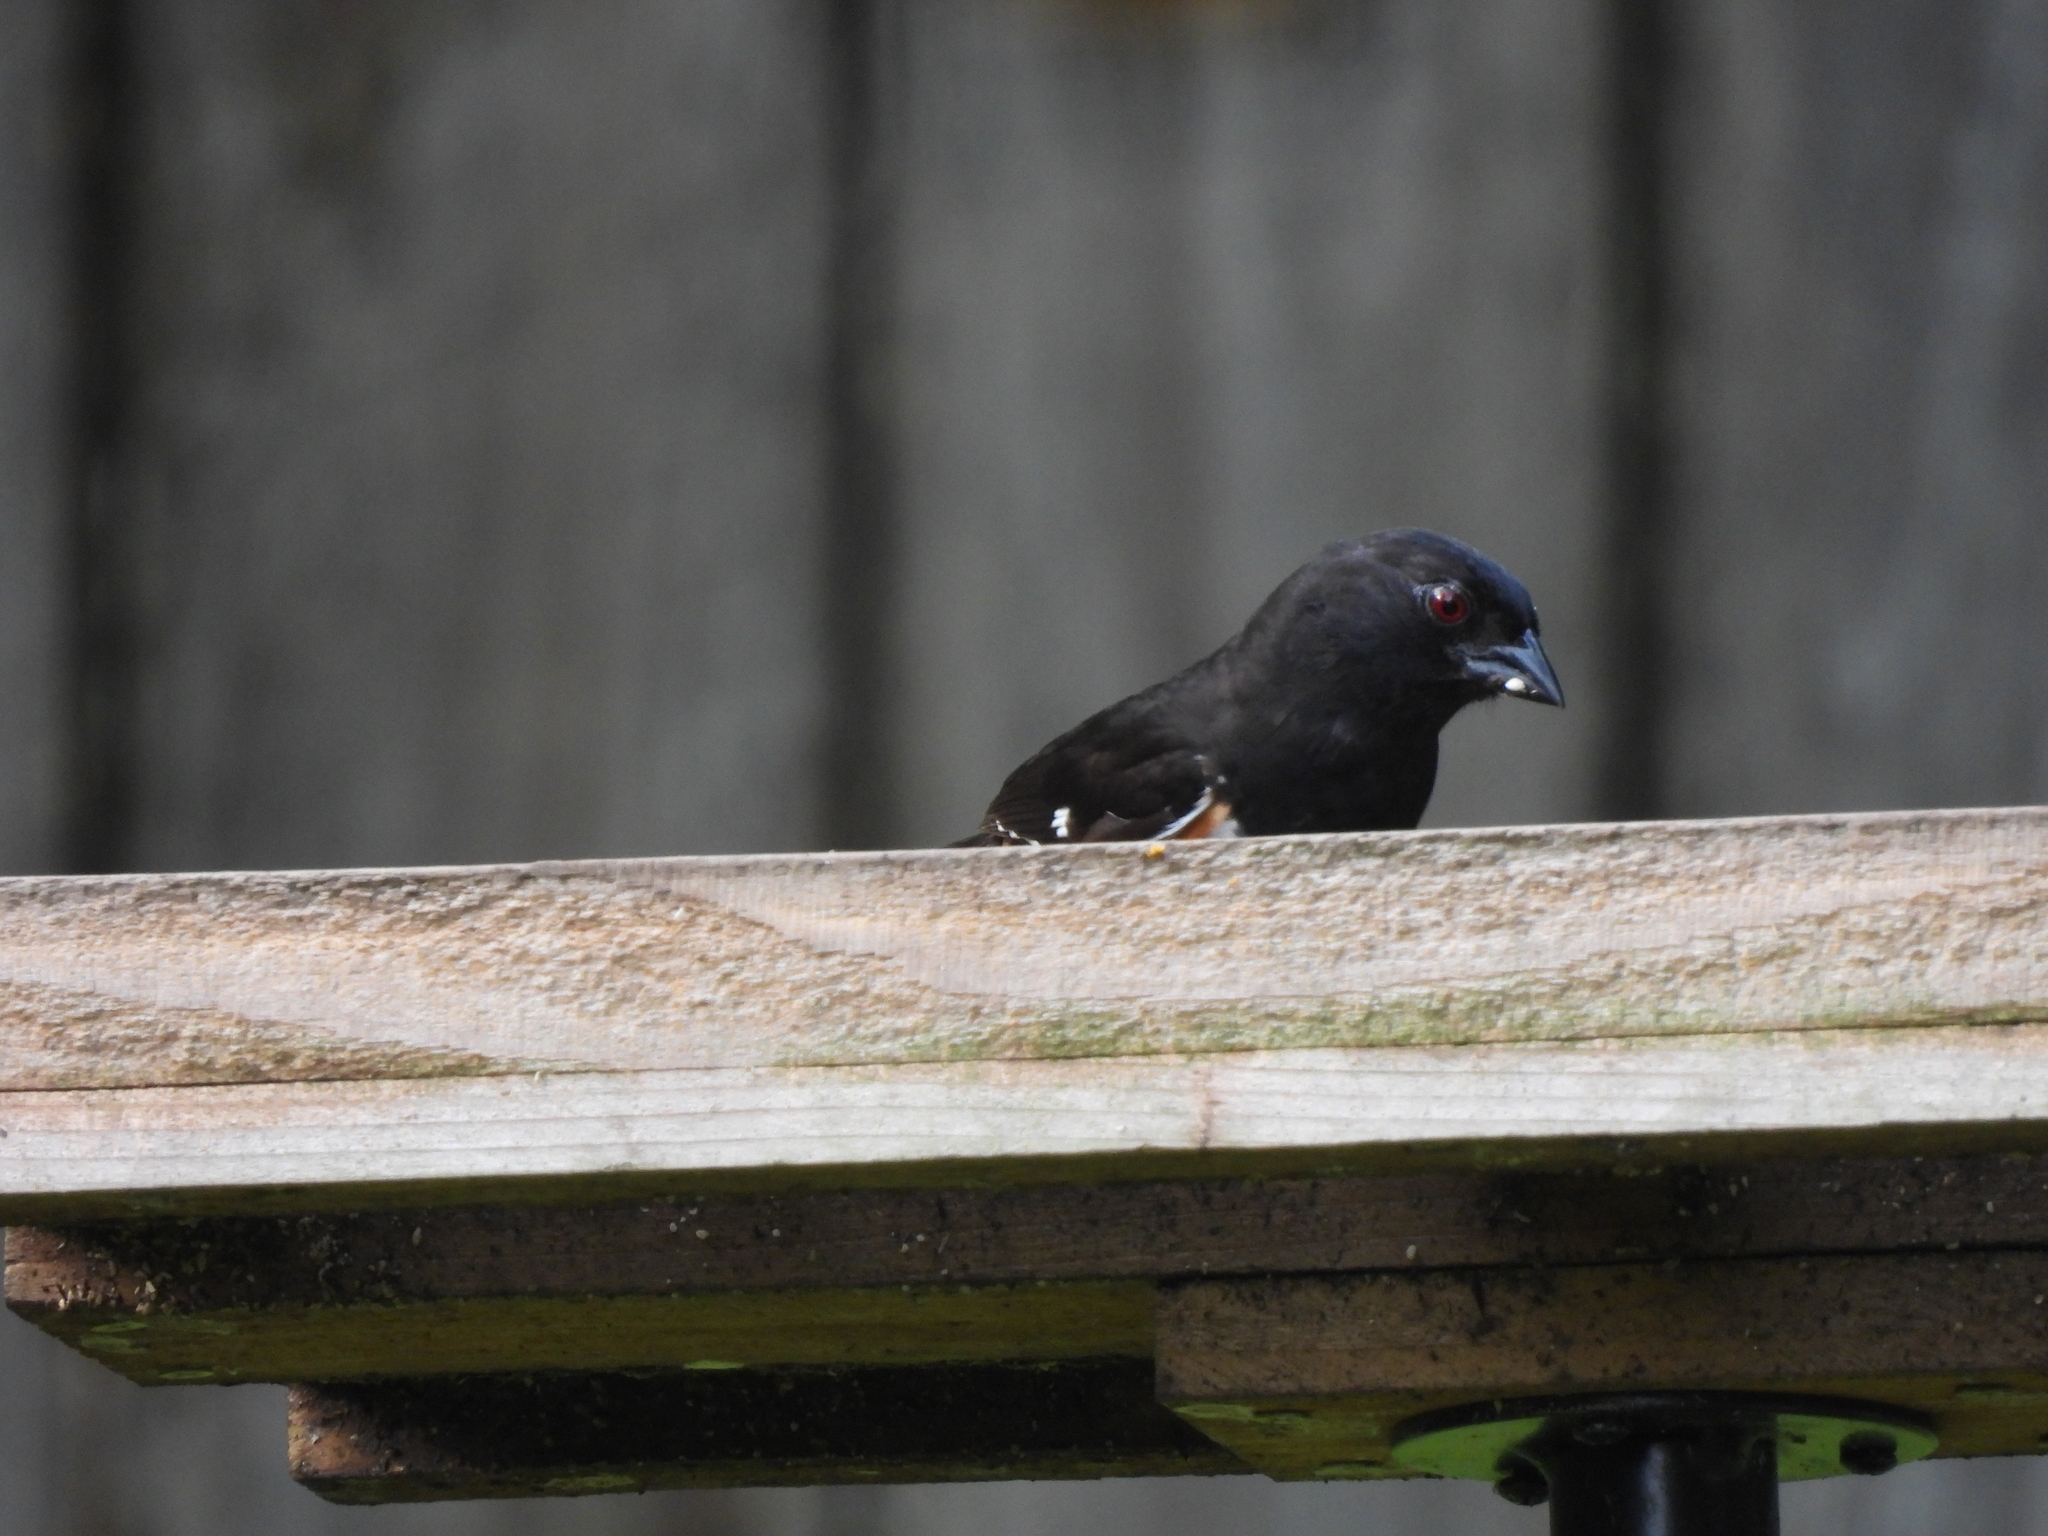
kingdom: Animalia
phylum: Chordata
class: Aves
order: Passeriformes
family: Passerellidae
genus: Pipilo
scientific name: Pipilo erythrophthalmus
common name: Eastern towhee
